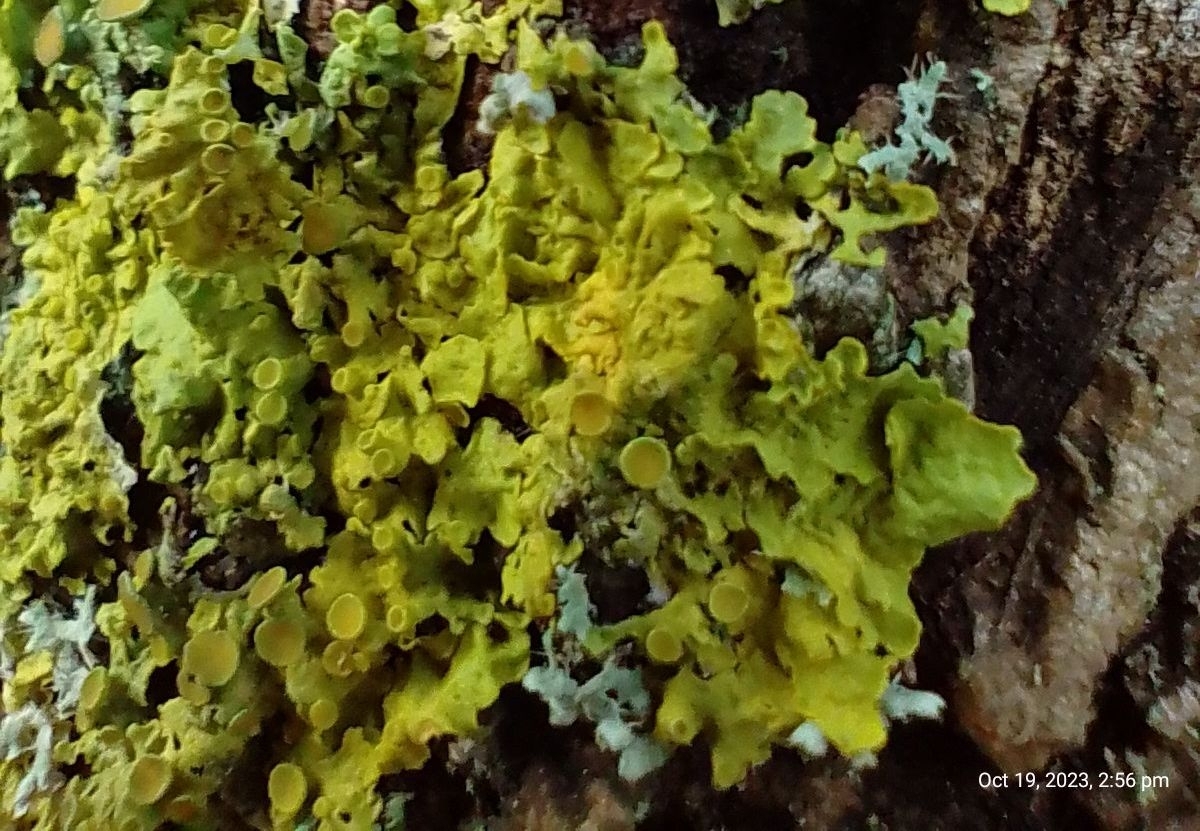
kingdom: Fungi
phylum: Ascomycota
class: Lecanoromycetes
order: Teloschistales
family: Teloschistaceae
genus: Xanthoria
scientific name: Xanthoria parietina
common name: Common orange lichen
